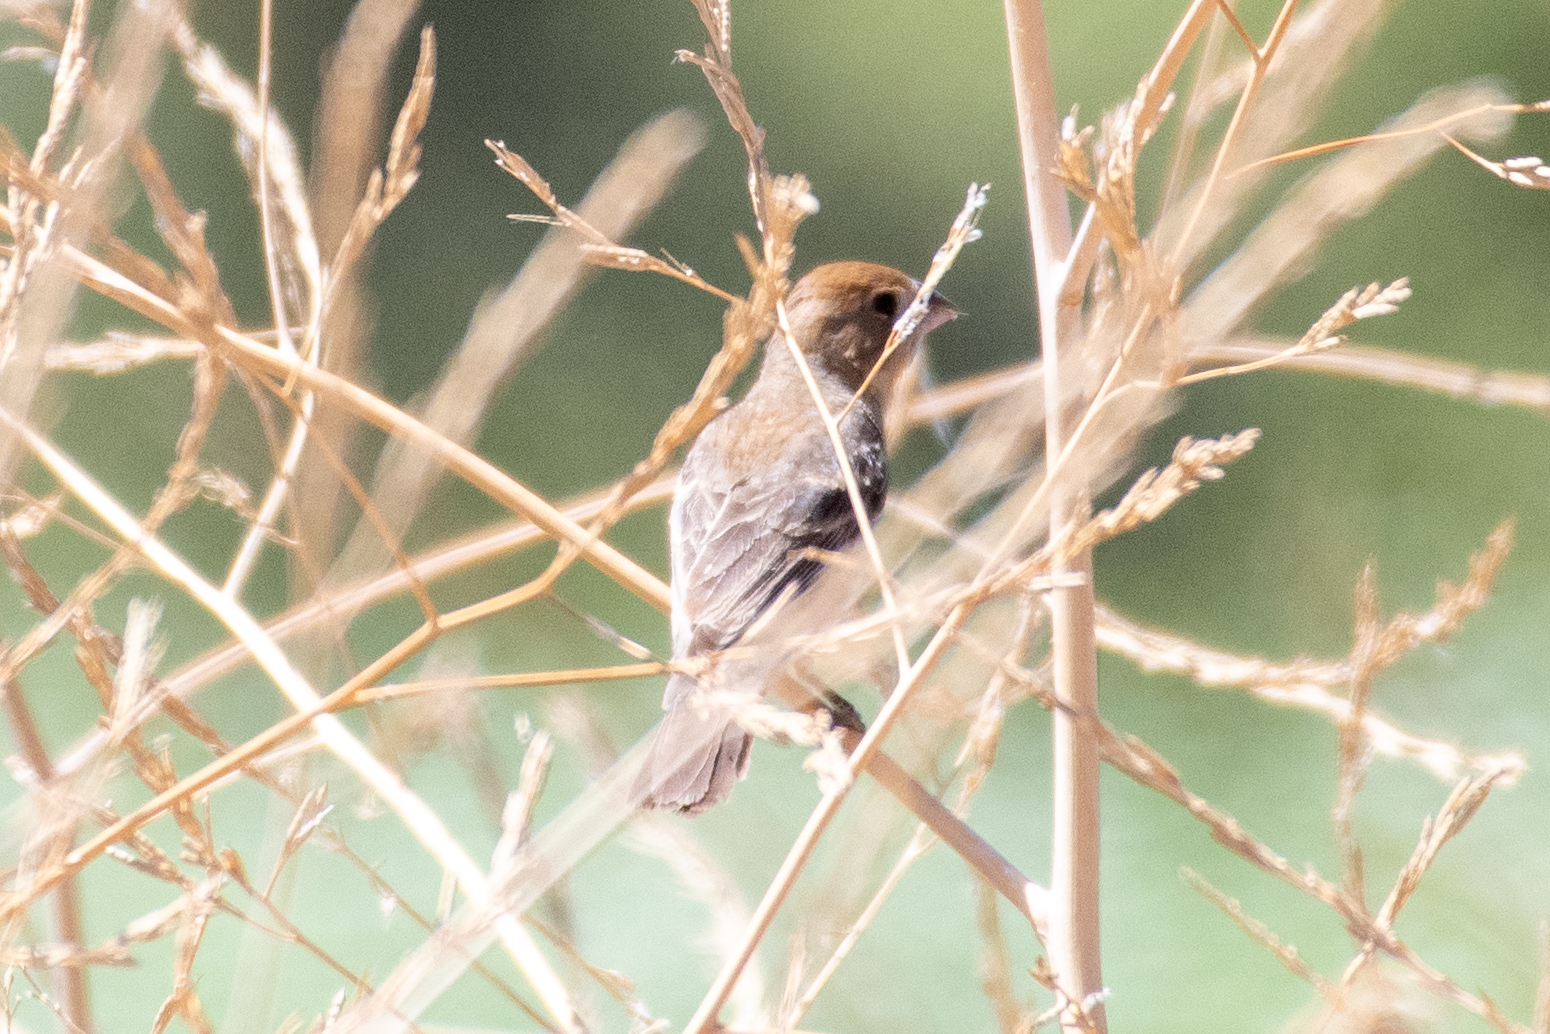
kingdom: Animalia
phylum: Chordata
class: Aves
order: Passeriformes
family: Cardinalidae
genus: Passerina
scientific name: Passerina caerulea
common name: Blue grosbeak
